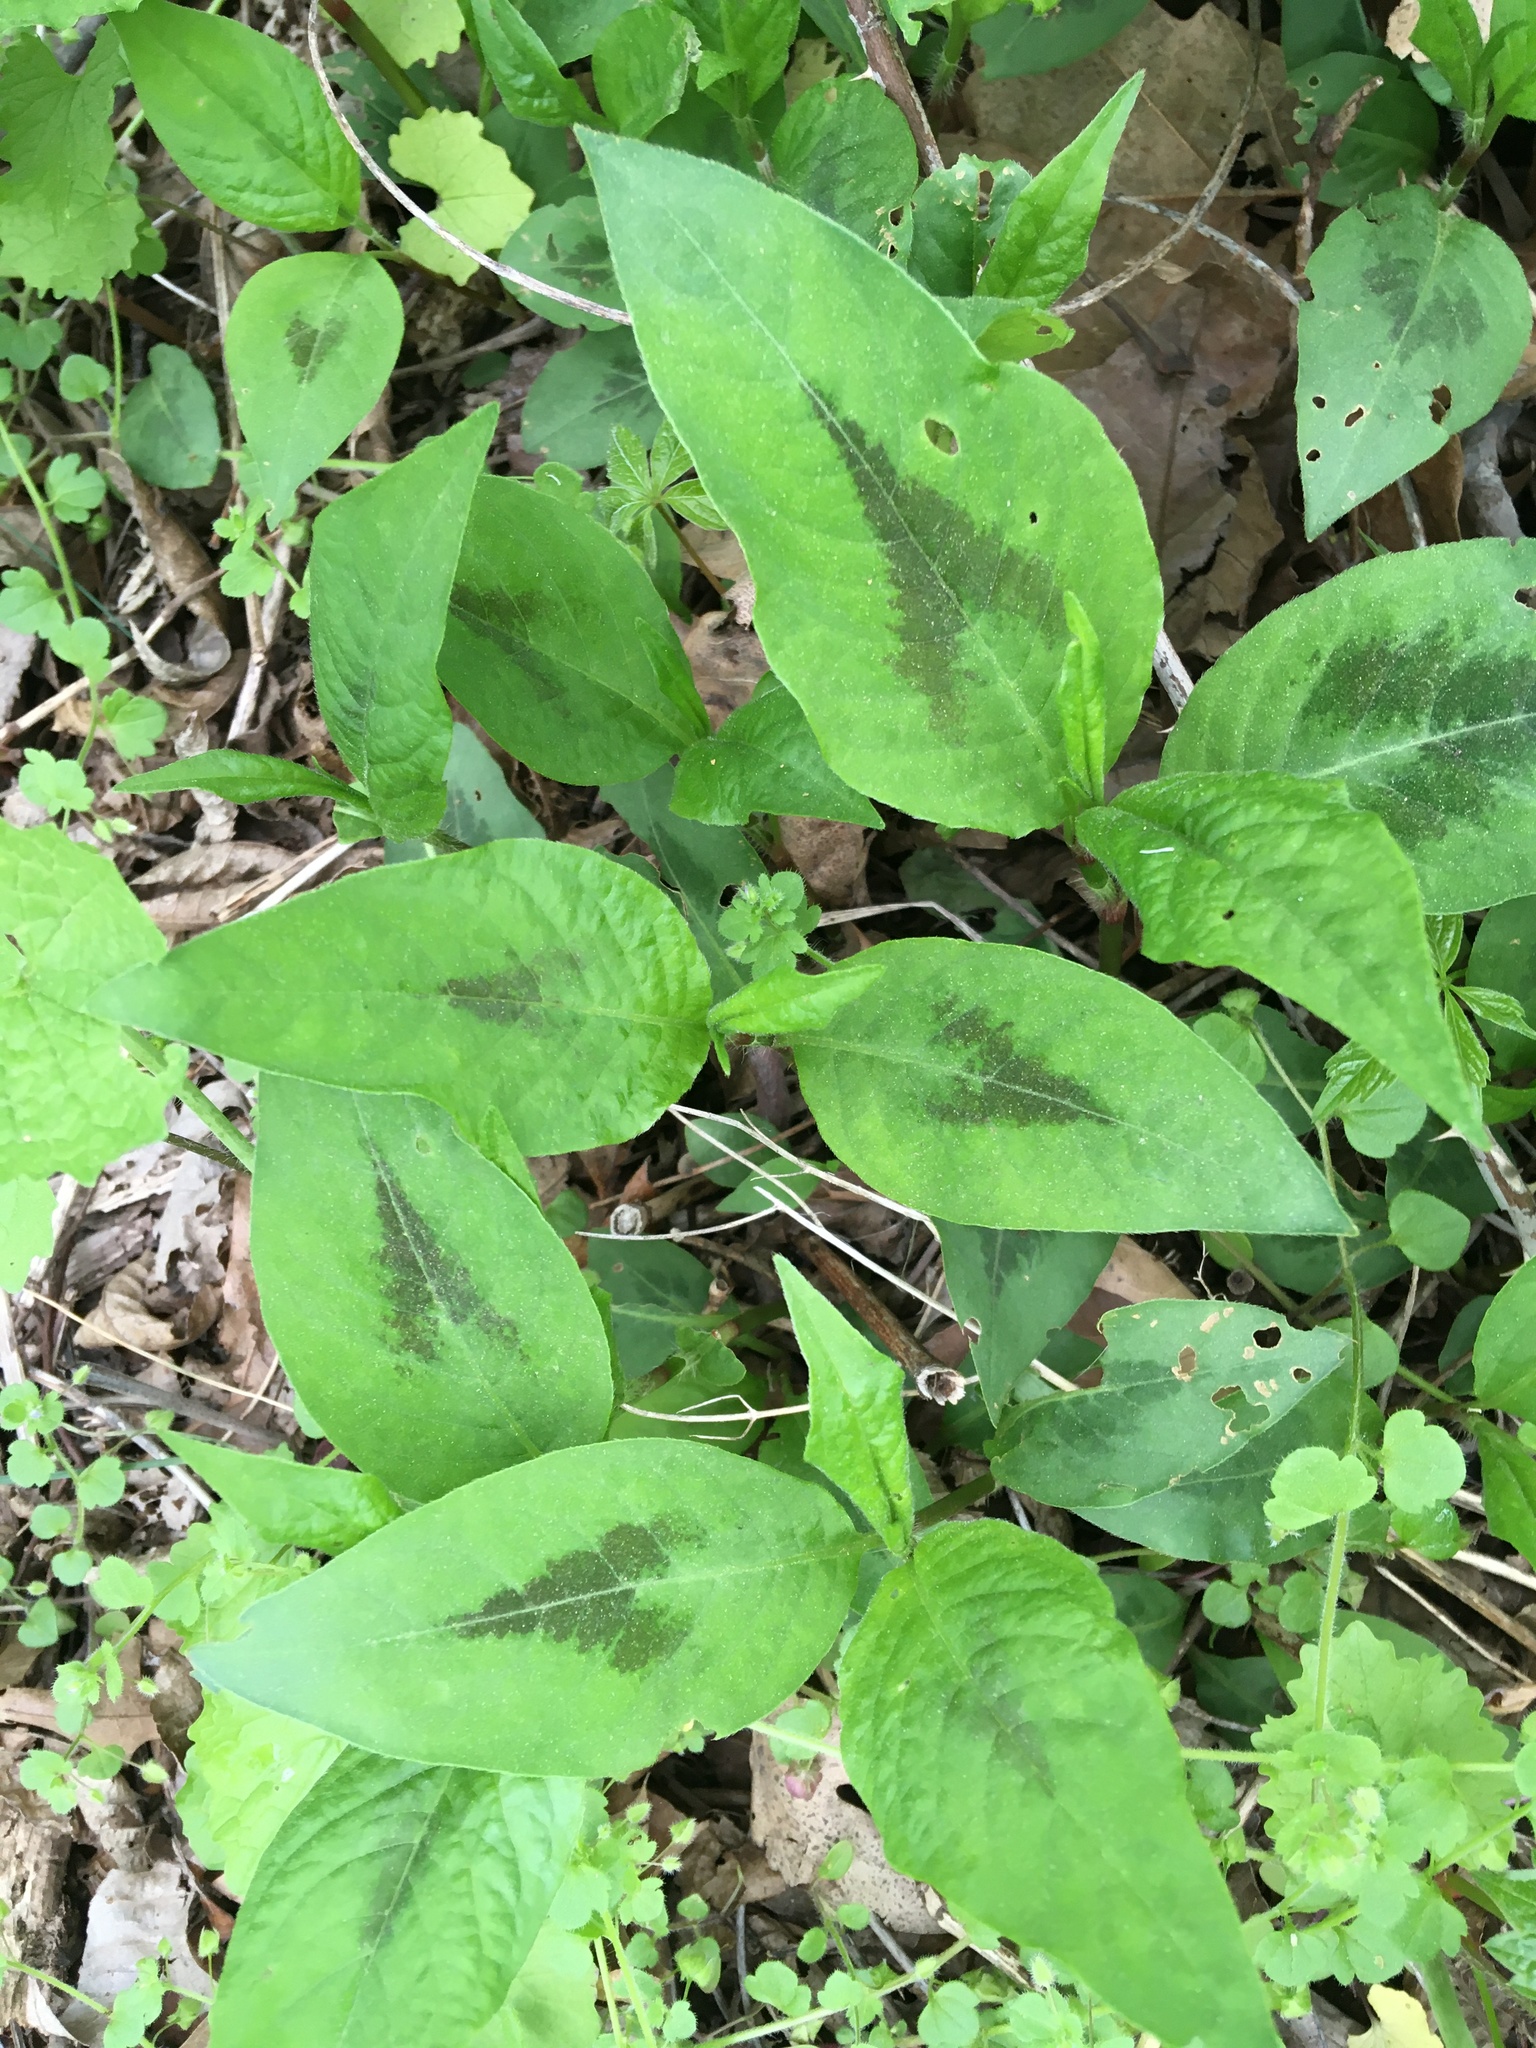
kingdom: Plantae
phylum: Tracheophyta
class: Magnoliopsida
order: Caryophyllales
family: Polygonaceae
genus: Persicaria
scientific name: Persicaria virginiana
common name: Jumpseed
